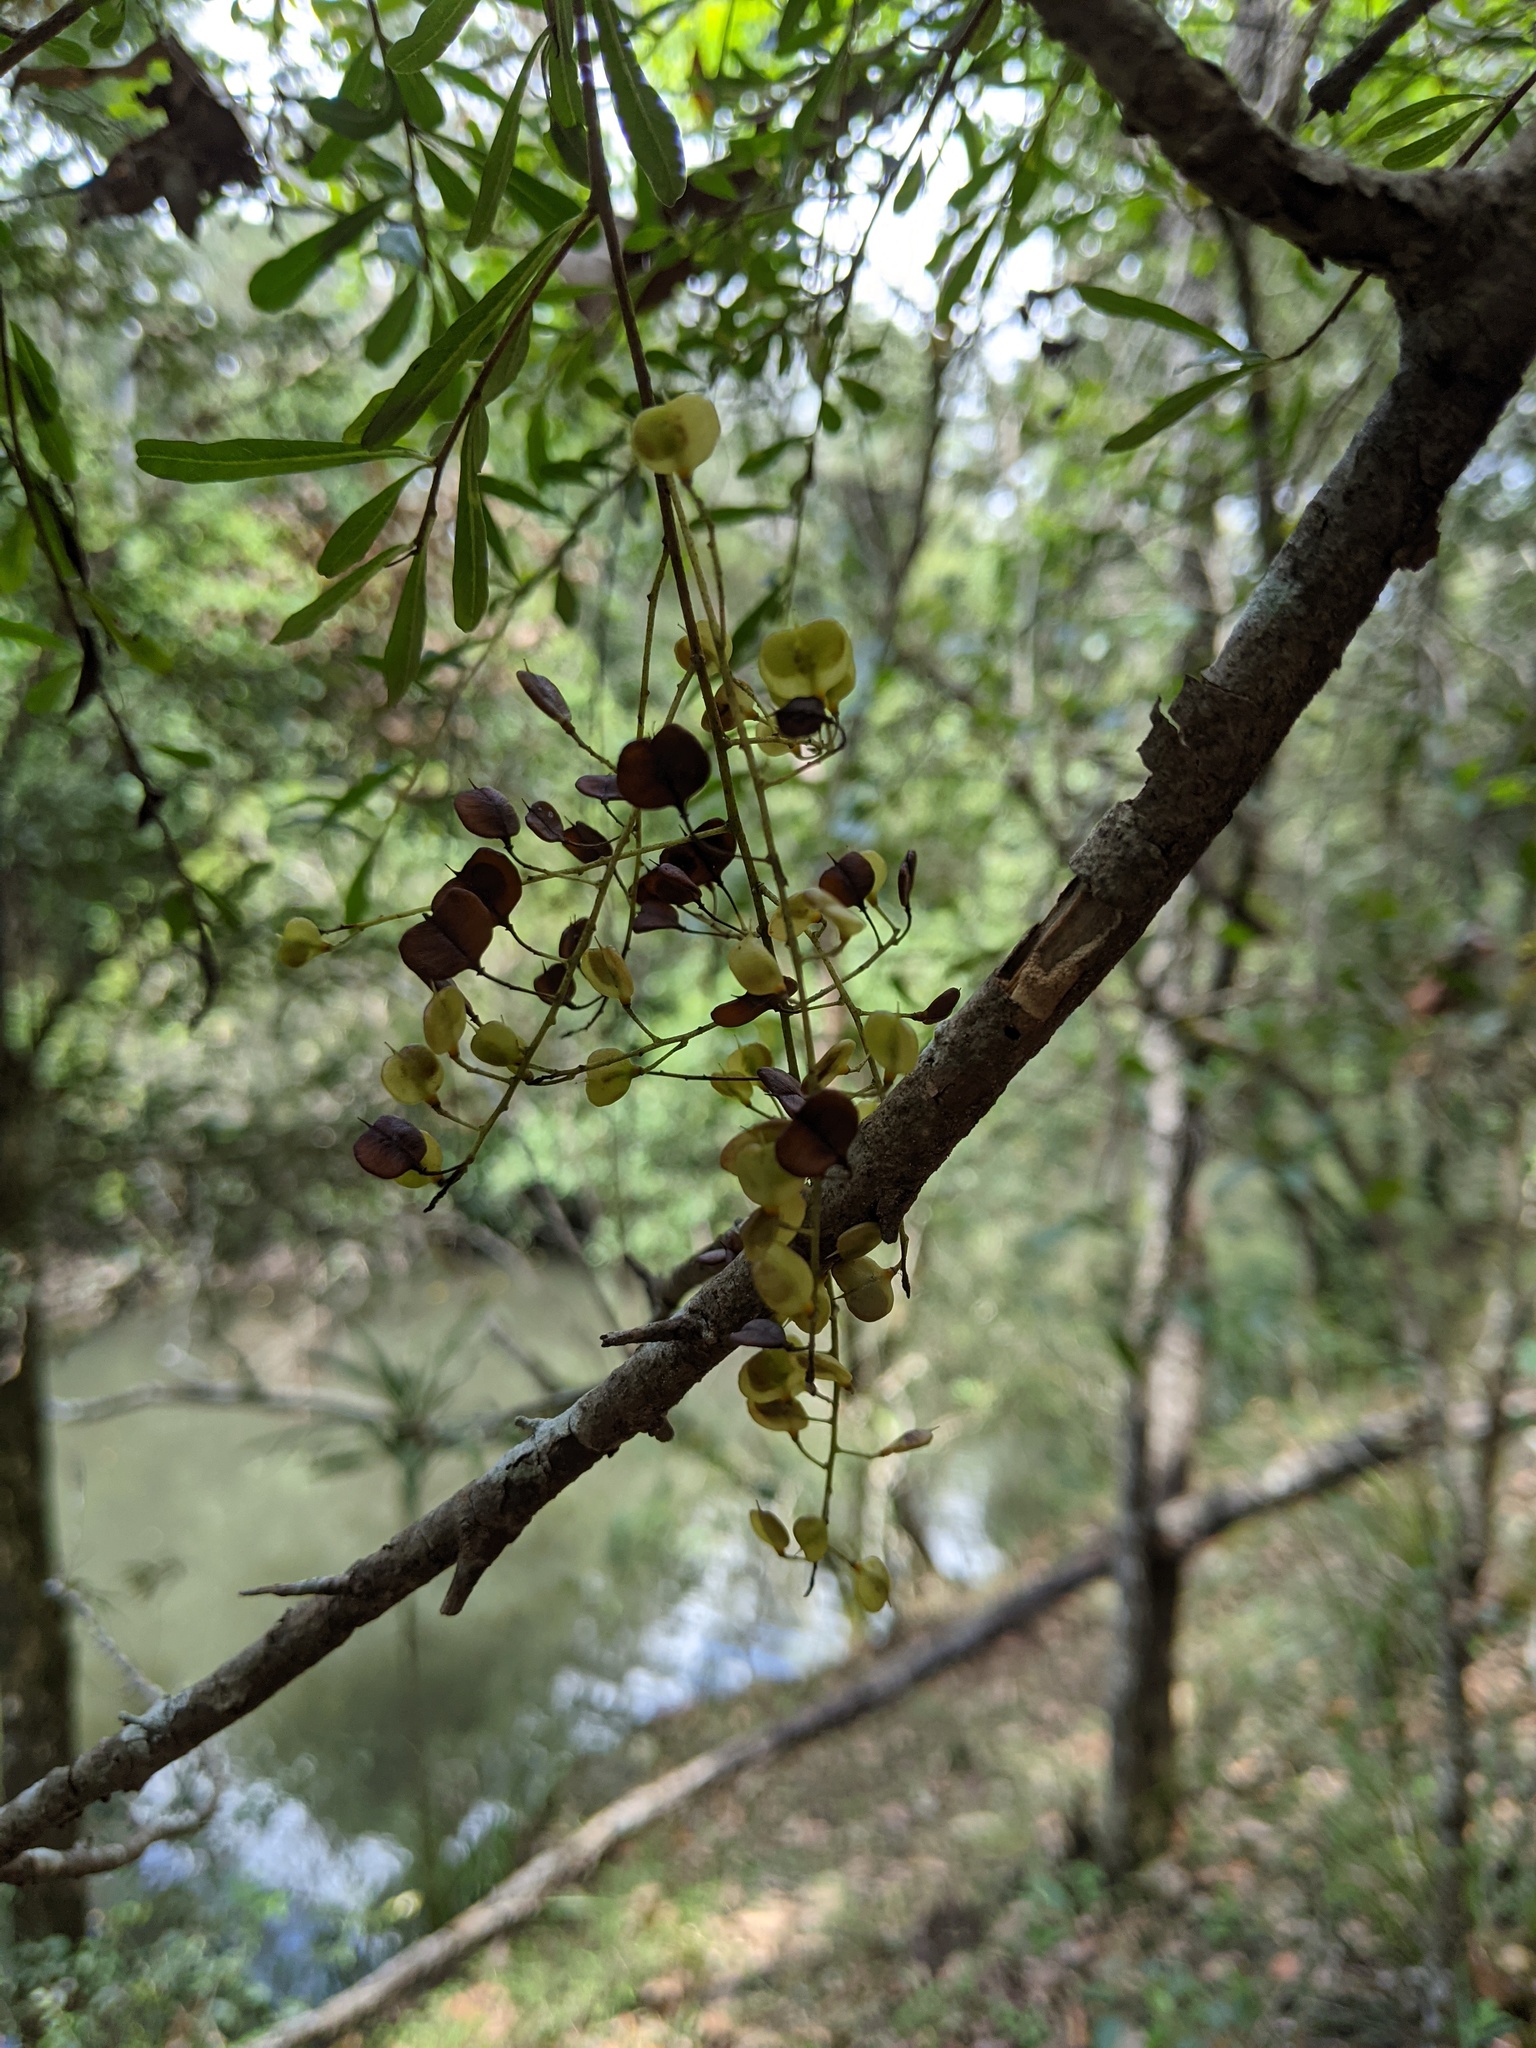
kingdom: Plantae
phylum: Tracheophyta
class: Magnoliopsida
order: Apiales
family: Pittosporaceae
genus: Bursaria
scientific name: Bursaria spinosa
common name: Australian blackthorn
